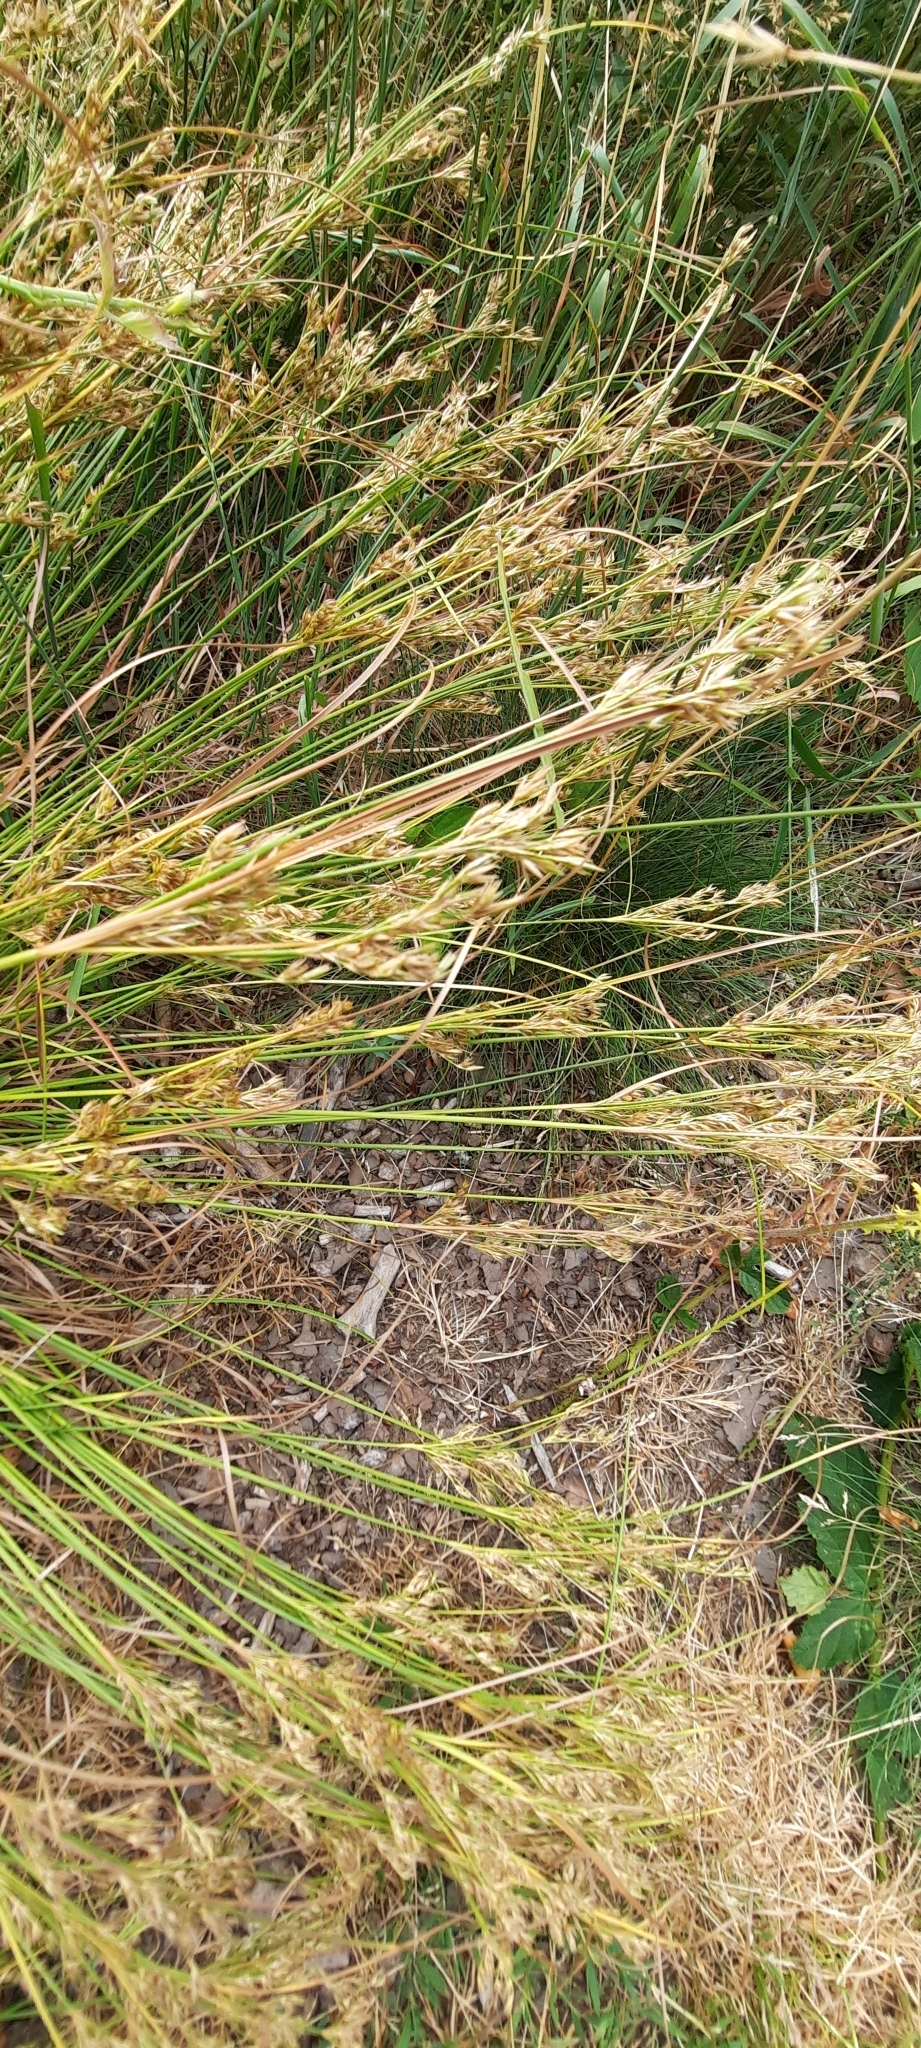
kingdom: Plantae
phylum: Tracheophyta
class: Liliopsida
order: Poales
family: Juncaceae
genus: Juncus
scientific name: Juncus tenuis
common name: Slender rush
